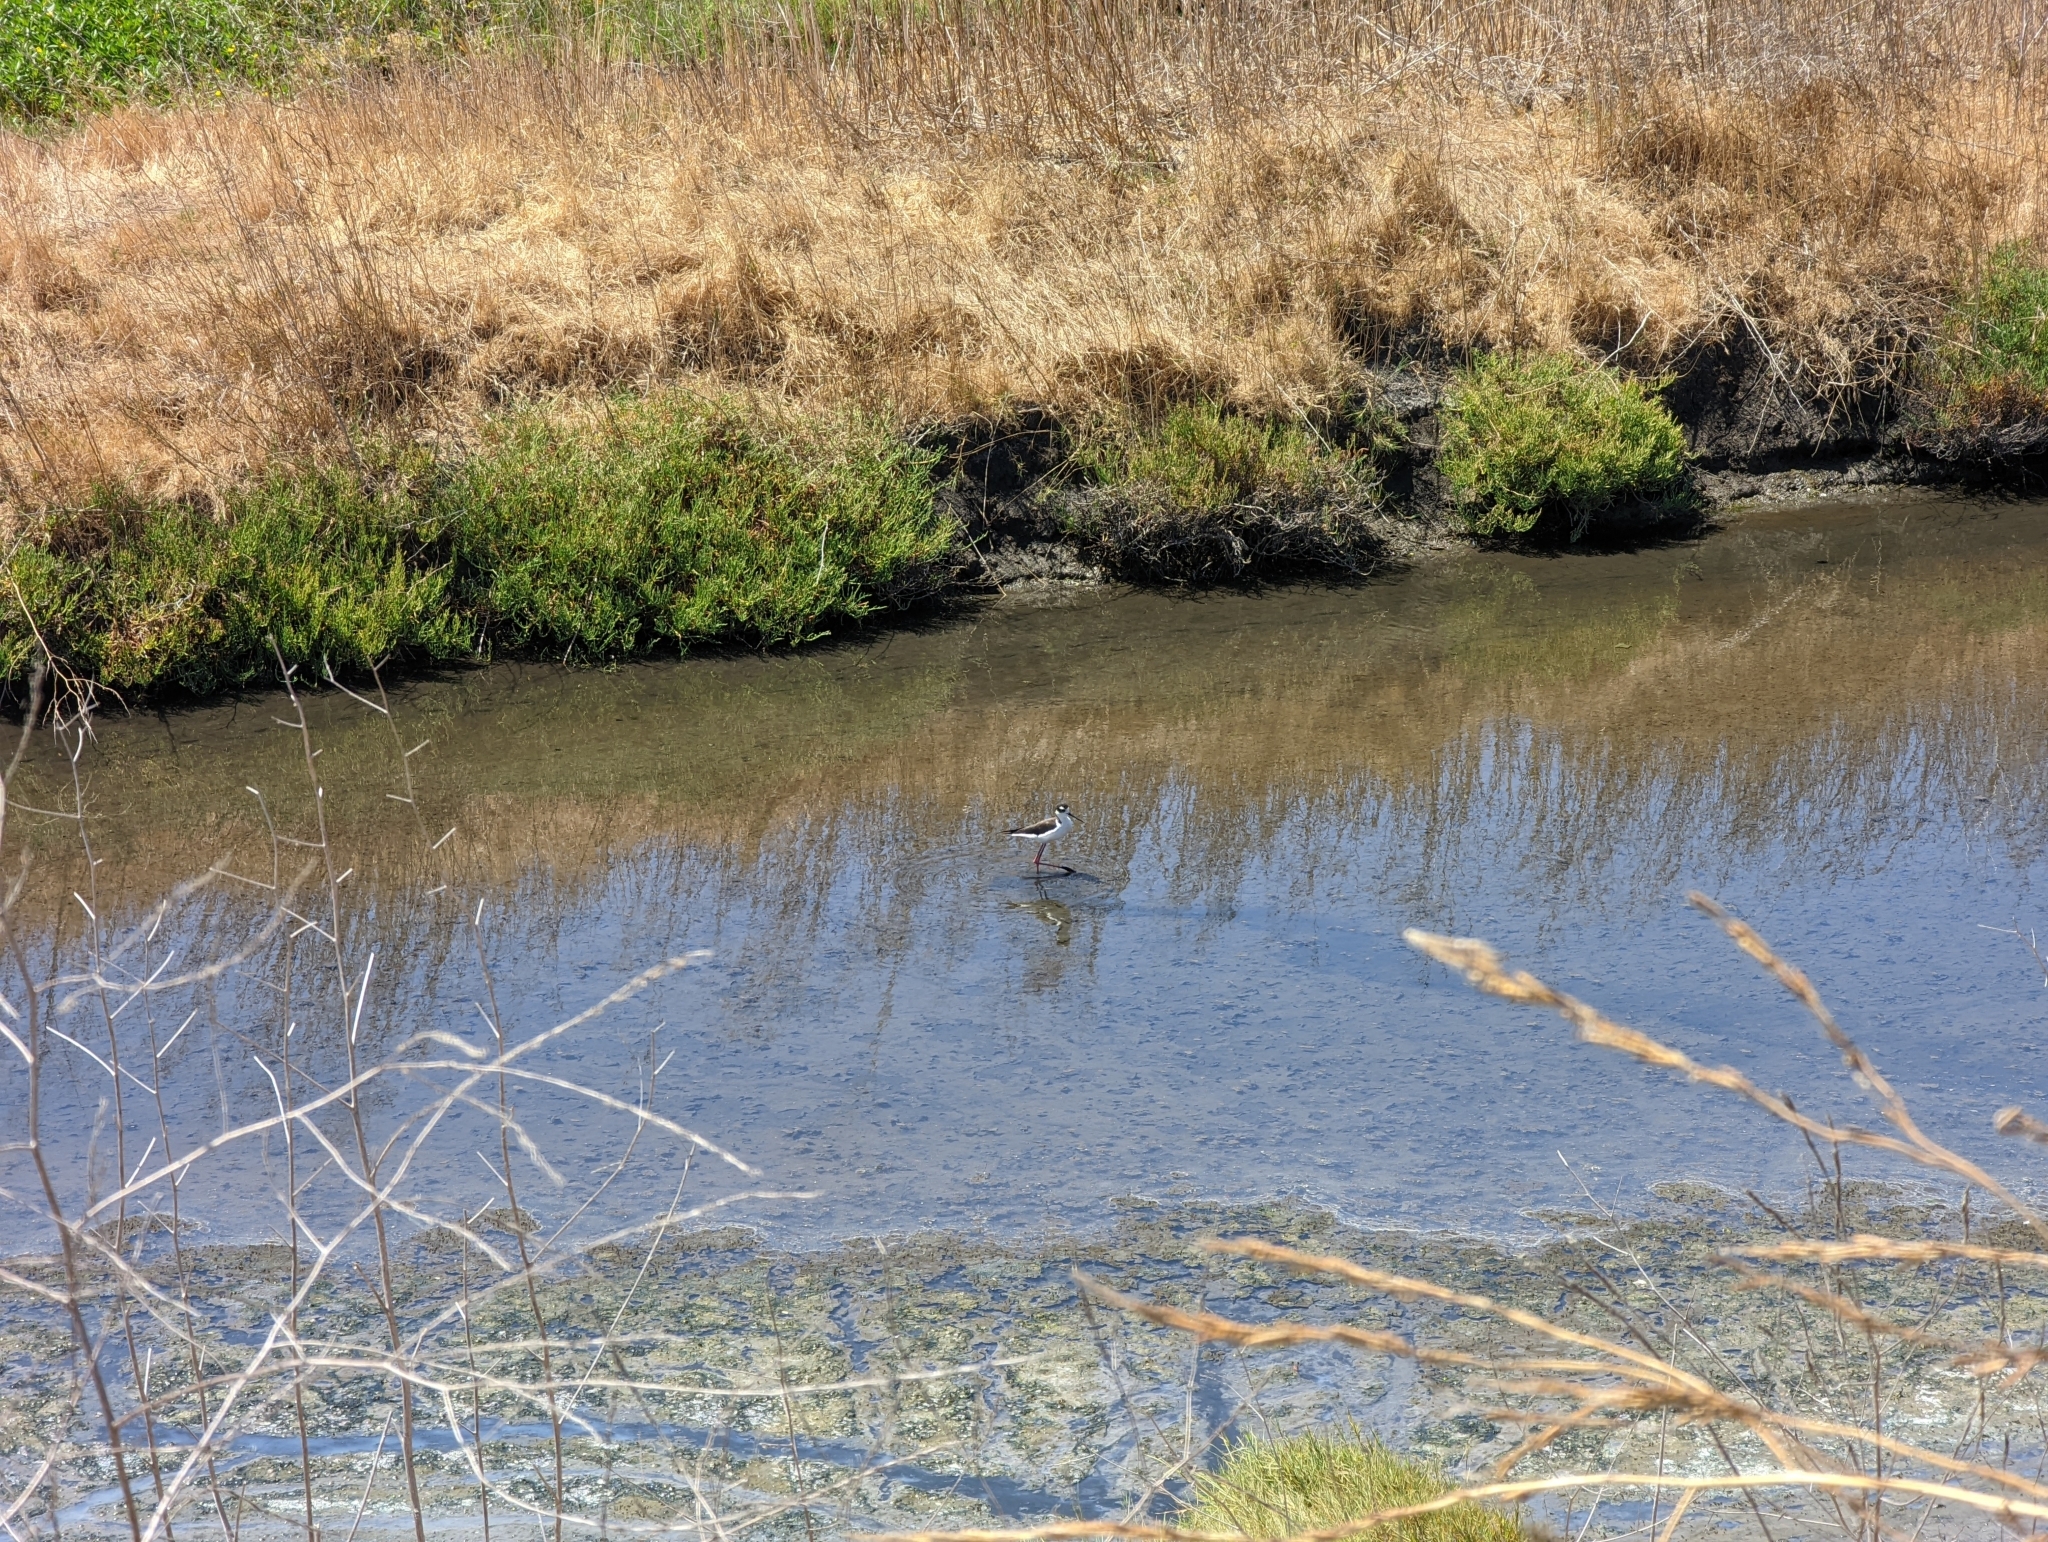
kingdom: Animalia
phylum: Chordata
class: Aves
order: Charadriiformes
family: Recurvirostridae
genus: Himantopus
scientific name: Himantopus mexicanus
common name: Black-necked stilt
